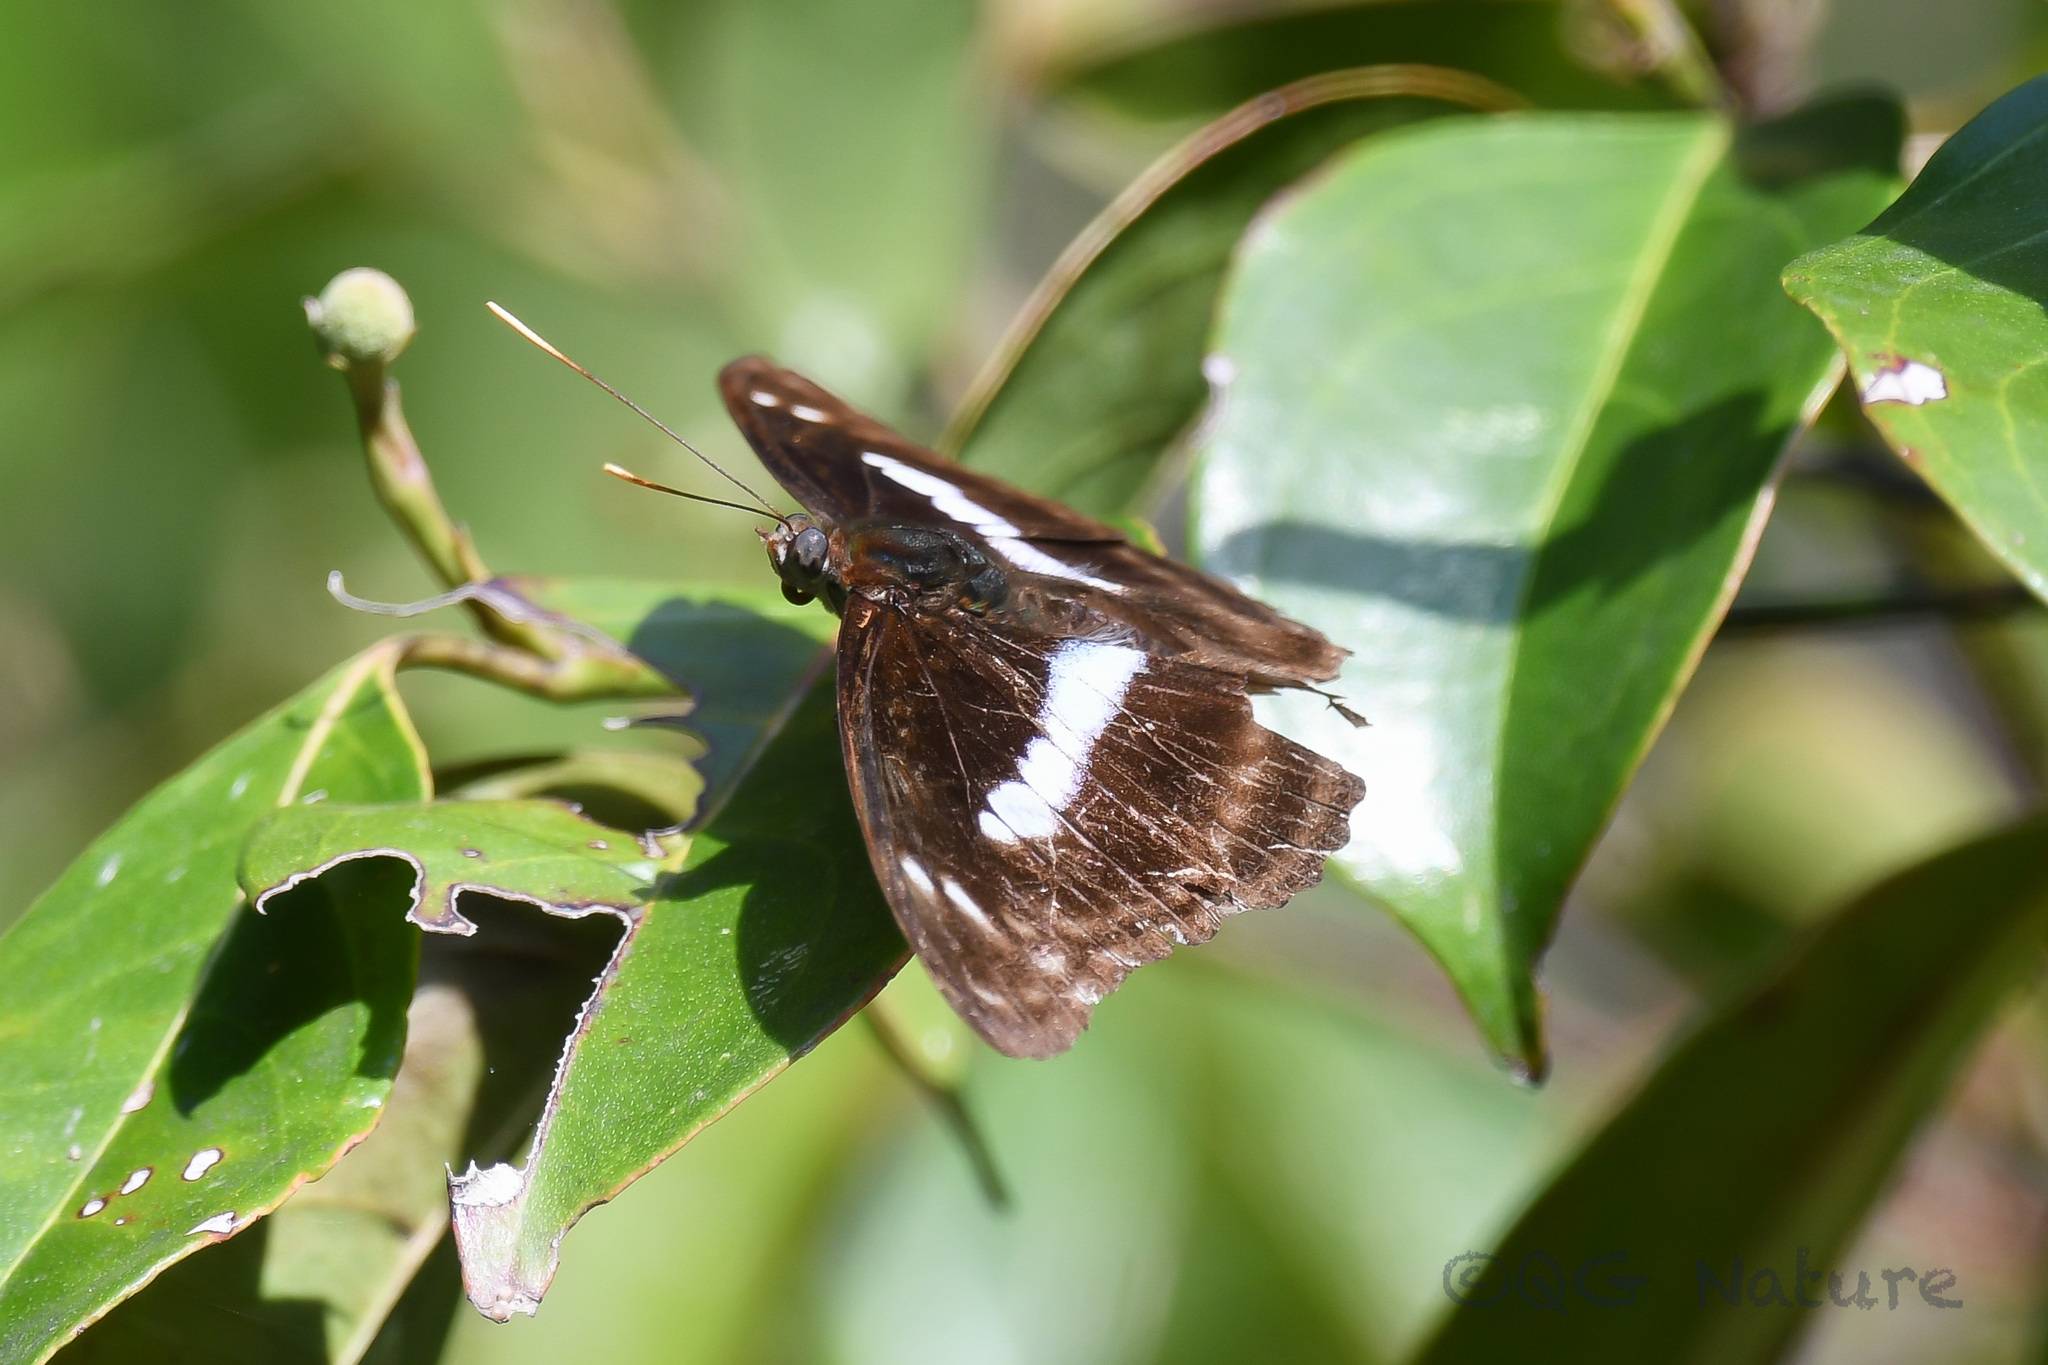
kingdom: Animalia
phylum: Arthropoda
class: Insecta
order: Lepidoptera
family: Nymphalidae
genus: Parathyma
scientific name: Parathyma selenophora
